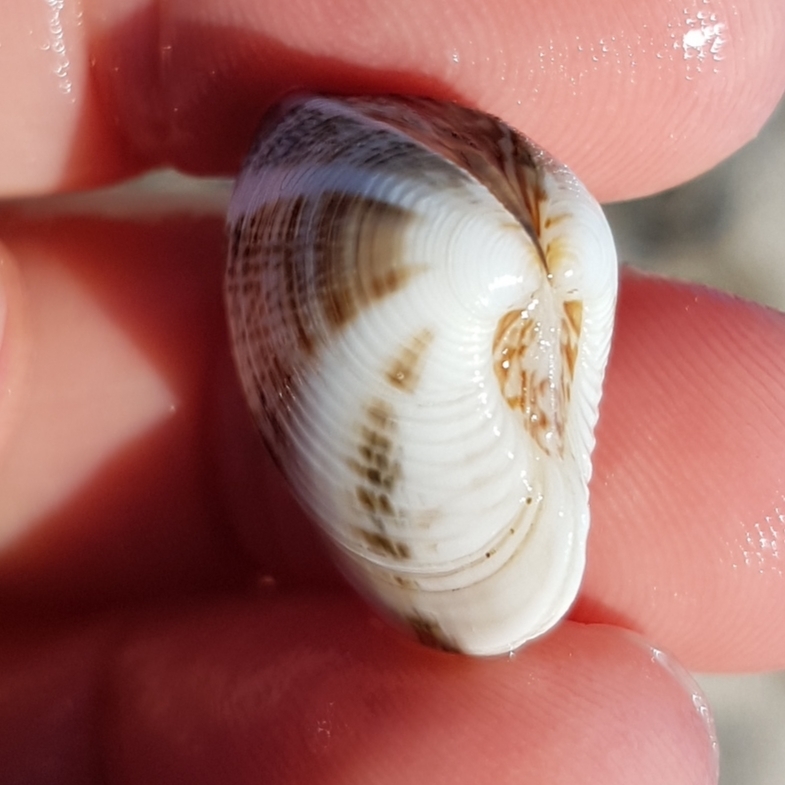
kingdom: Animalia
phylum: Mollusca
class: Bivalvia
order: Venerida
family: Veneridae
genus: Chamelea
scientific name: Chamelea gallina
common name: Chicken venus
